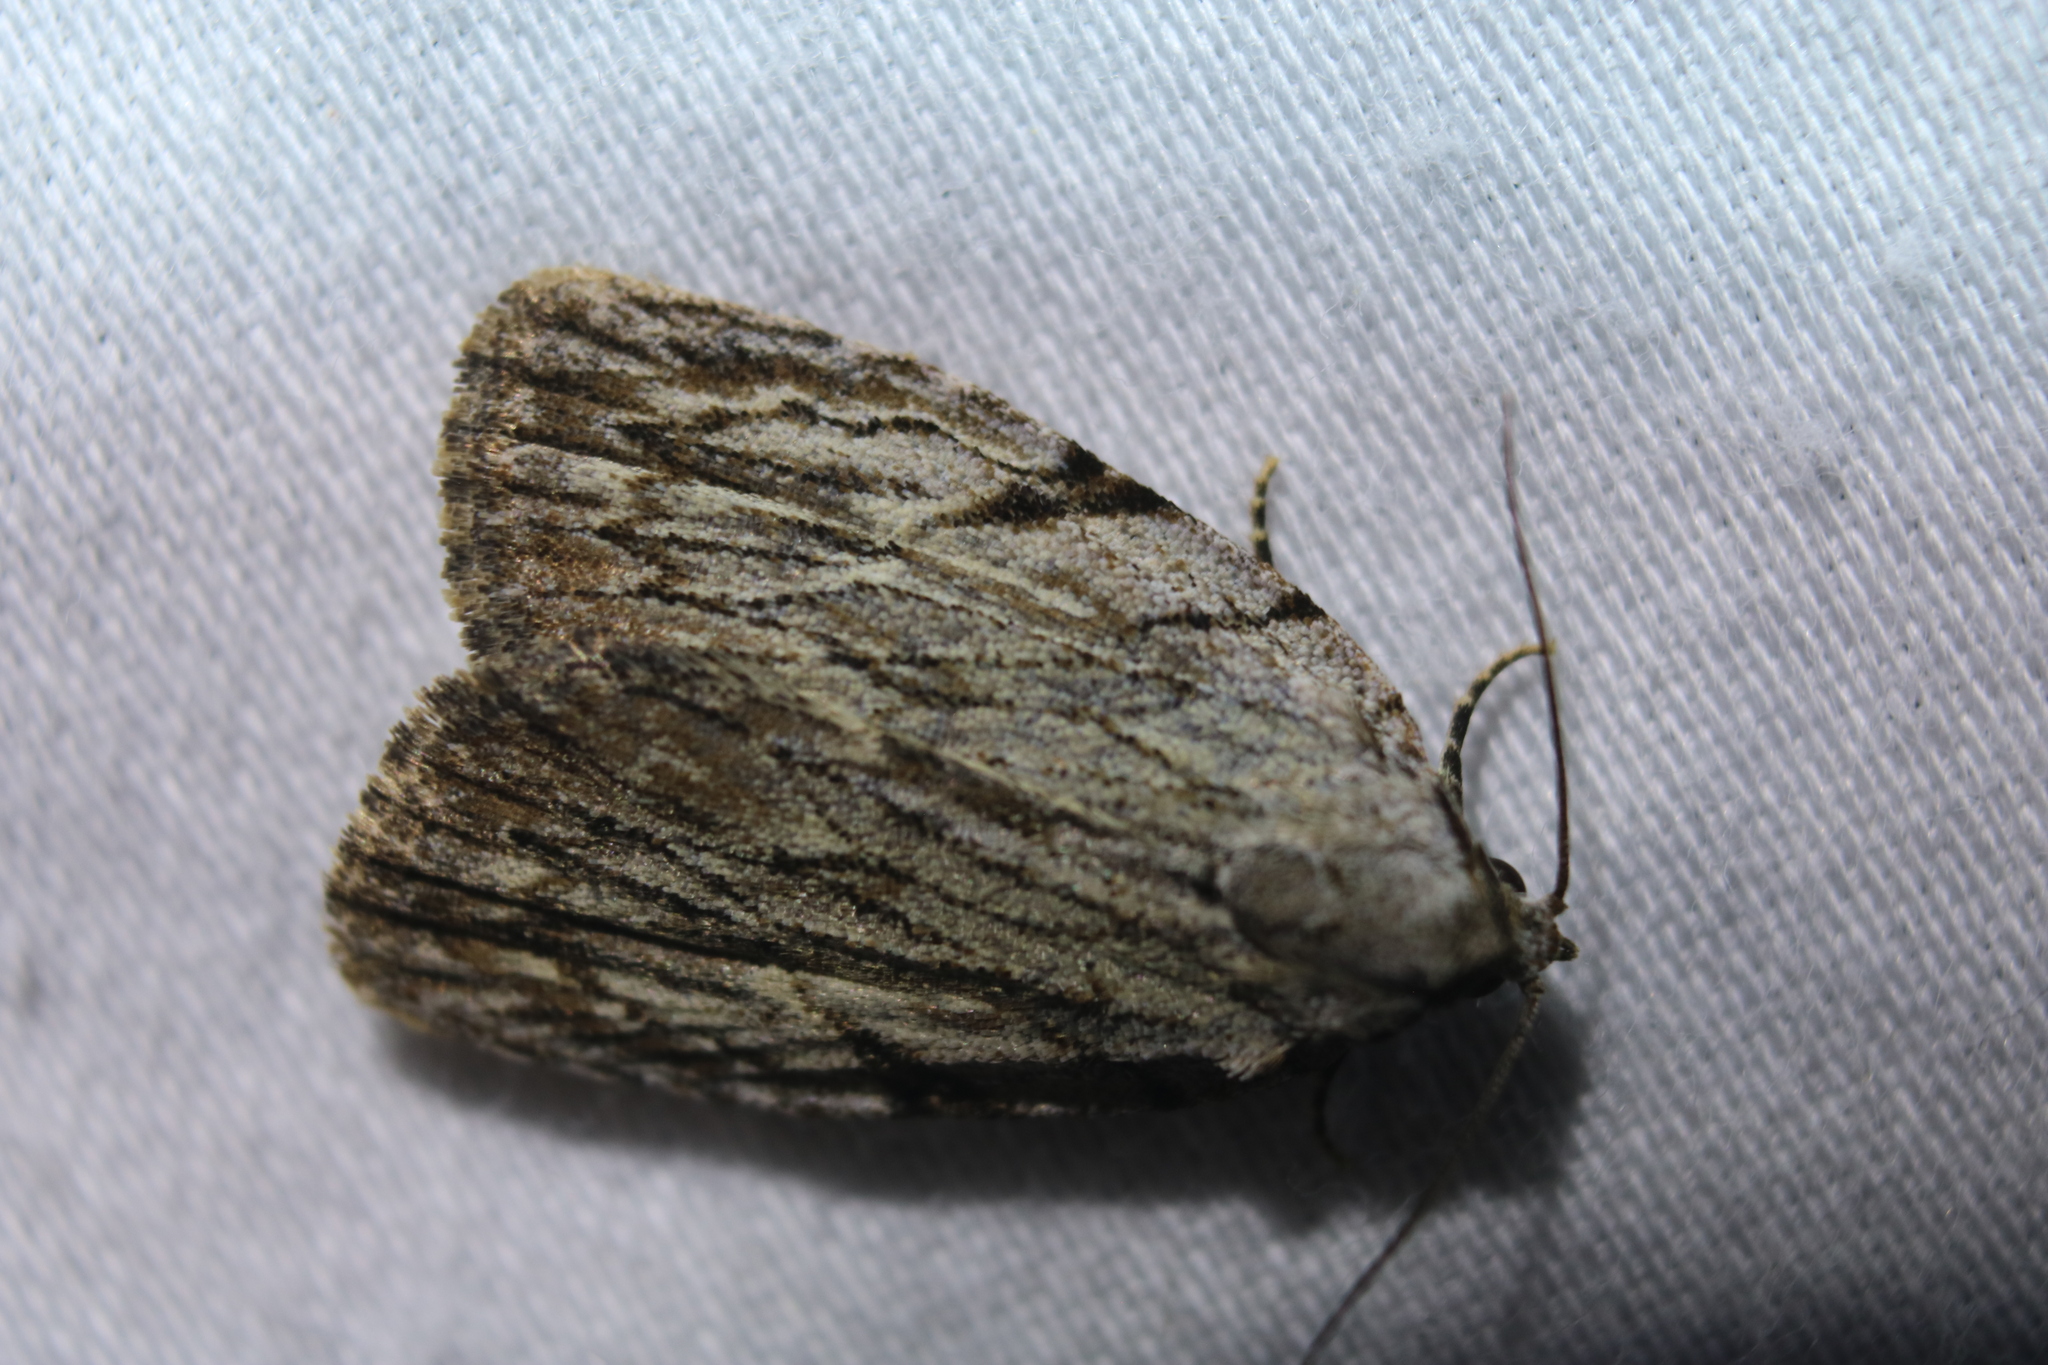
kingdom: Animalia
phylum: Arthropoda
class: Insecta
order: Lepidoptera
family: Noctuidae
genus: Balsa
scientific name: Balsa tristrigella
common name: Three-lined balsa moth
